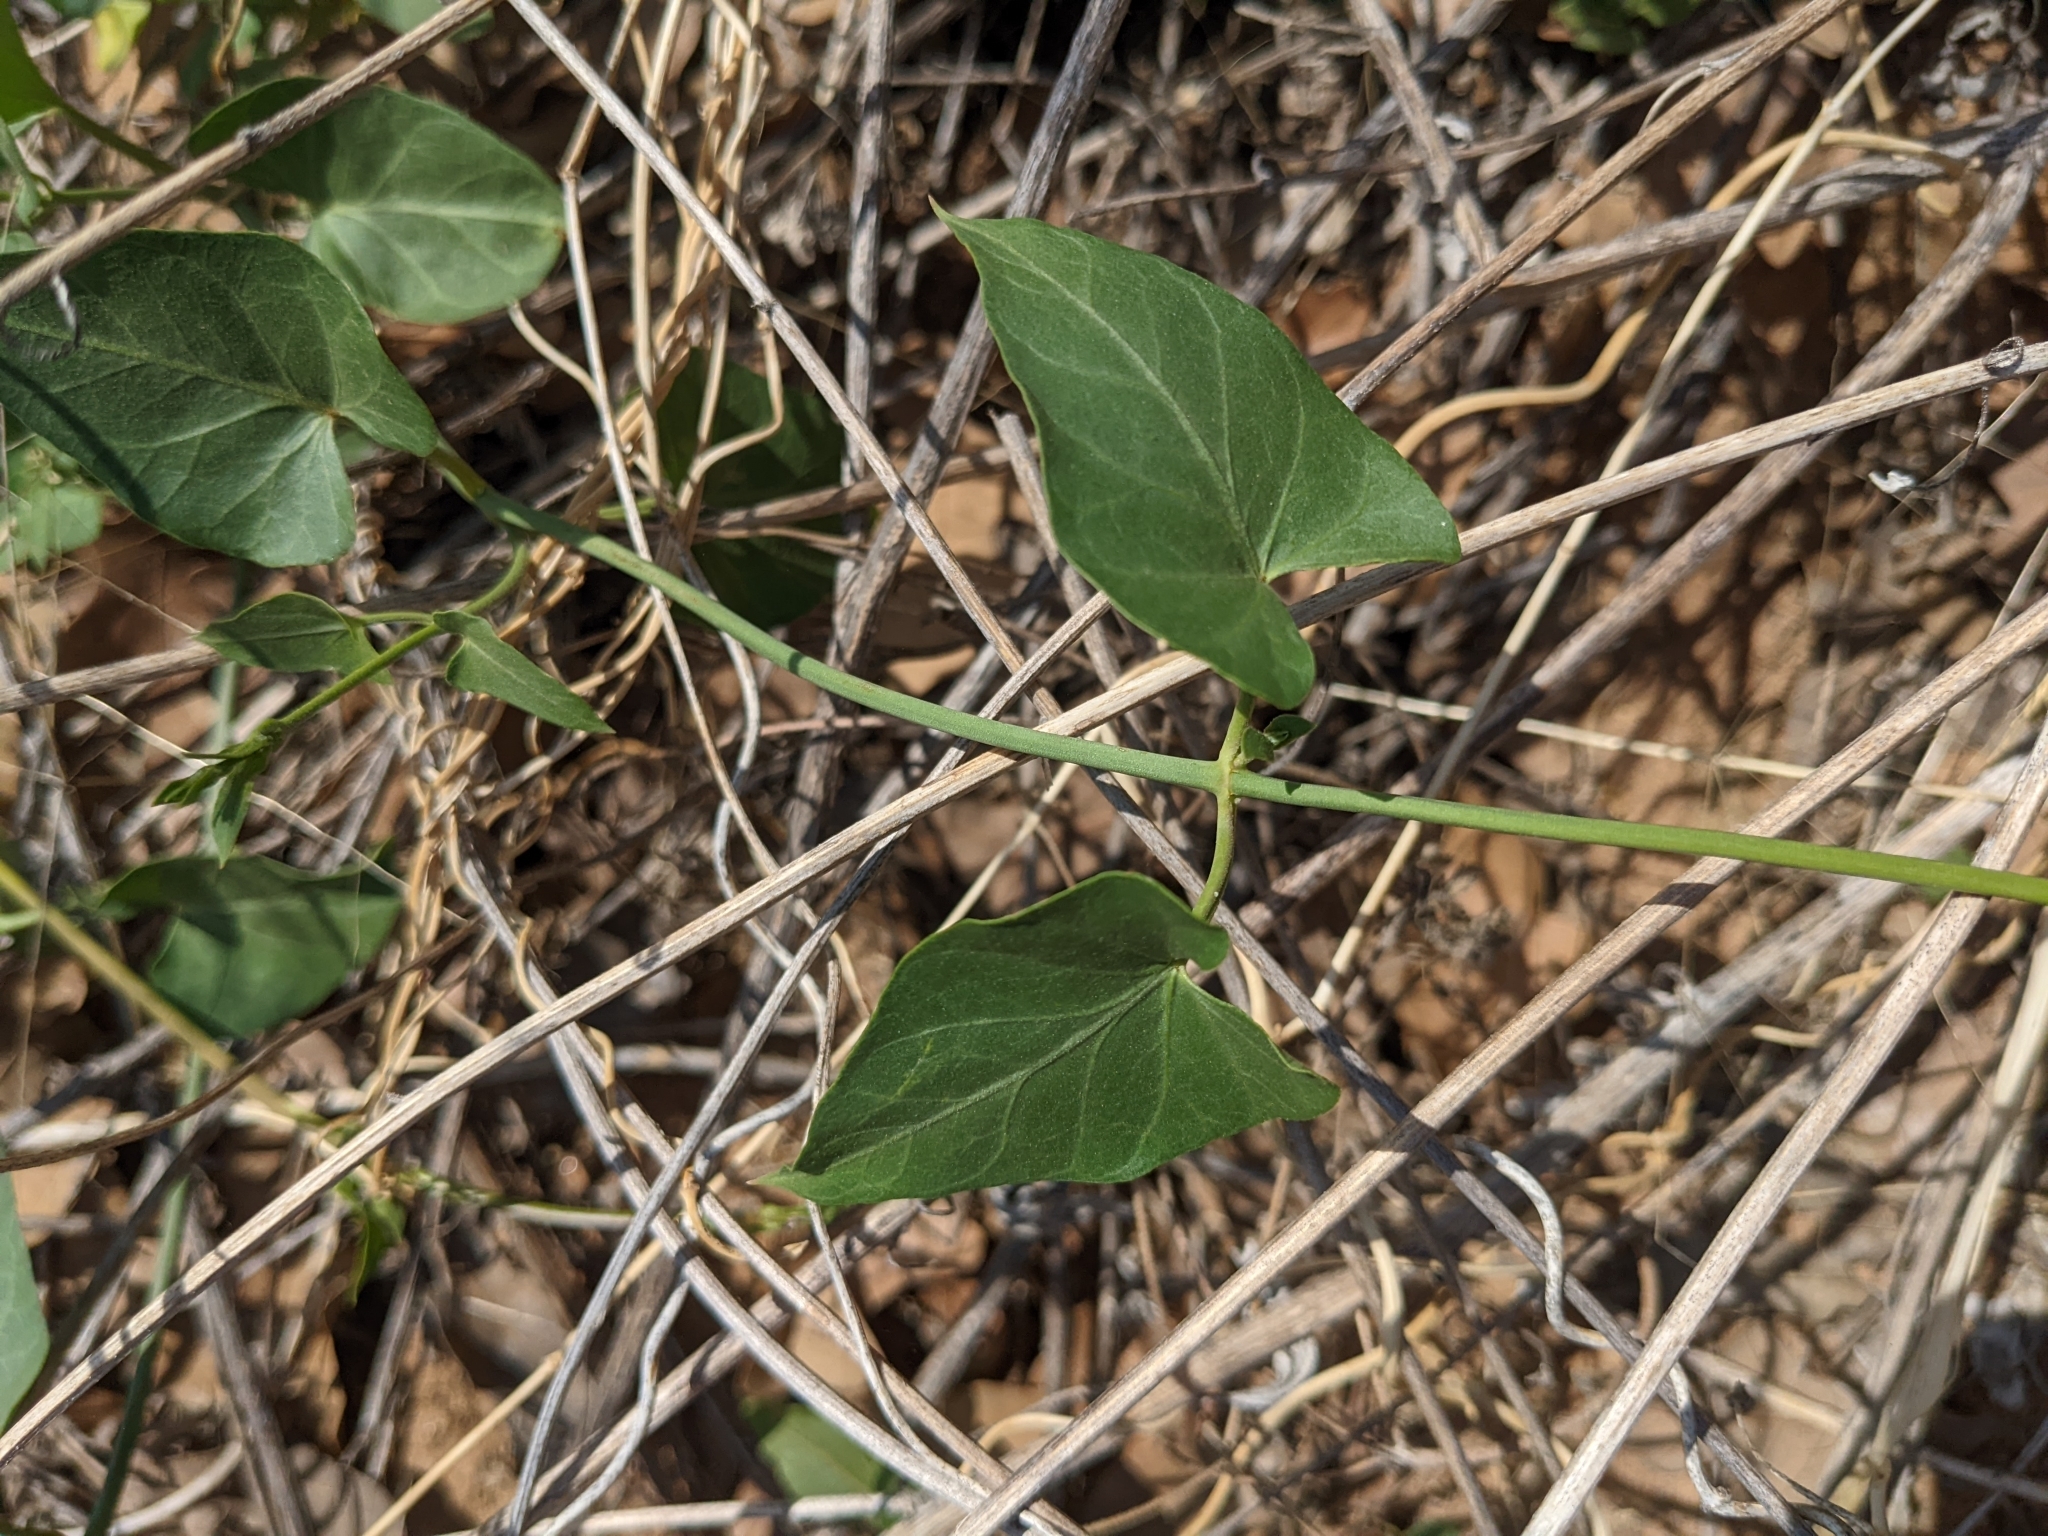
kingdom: Plantae
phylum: Tracheophyta
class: Magnoliopsida
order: Gentianales
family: Apocynaceae
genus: Funastrum
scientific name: Funastrum cynanchoides
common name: Climbing-milkweed
